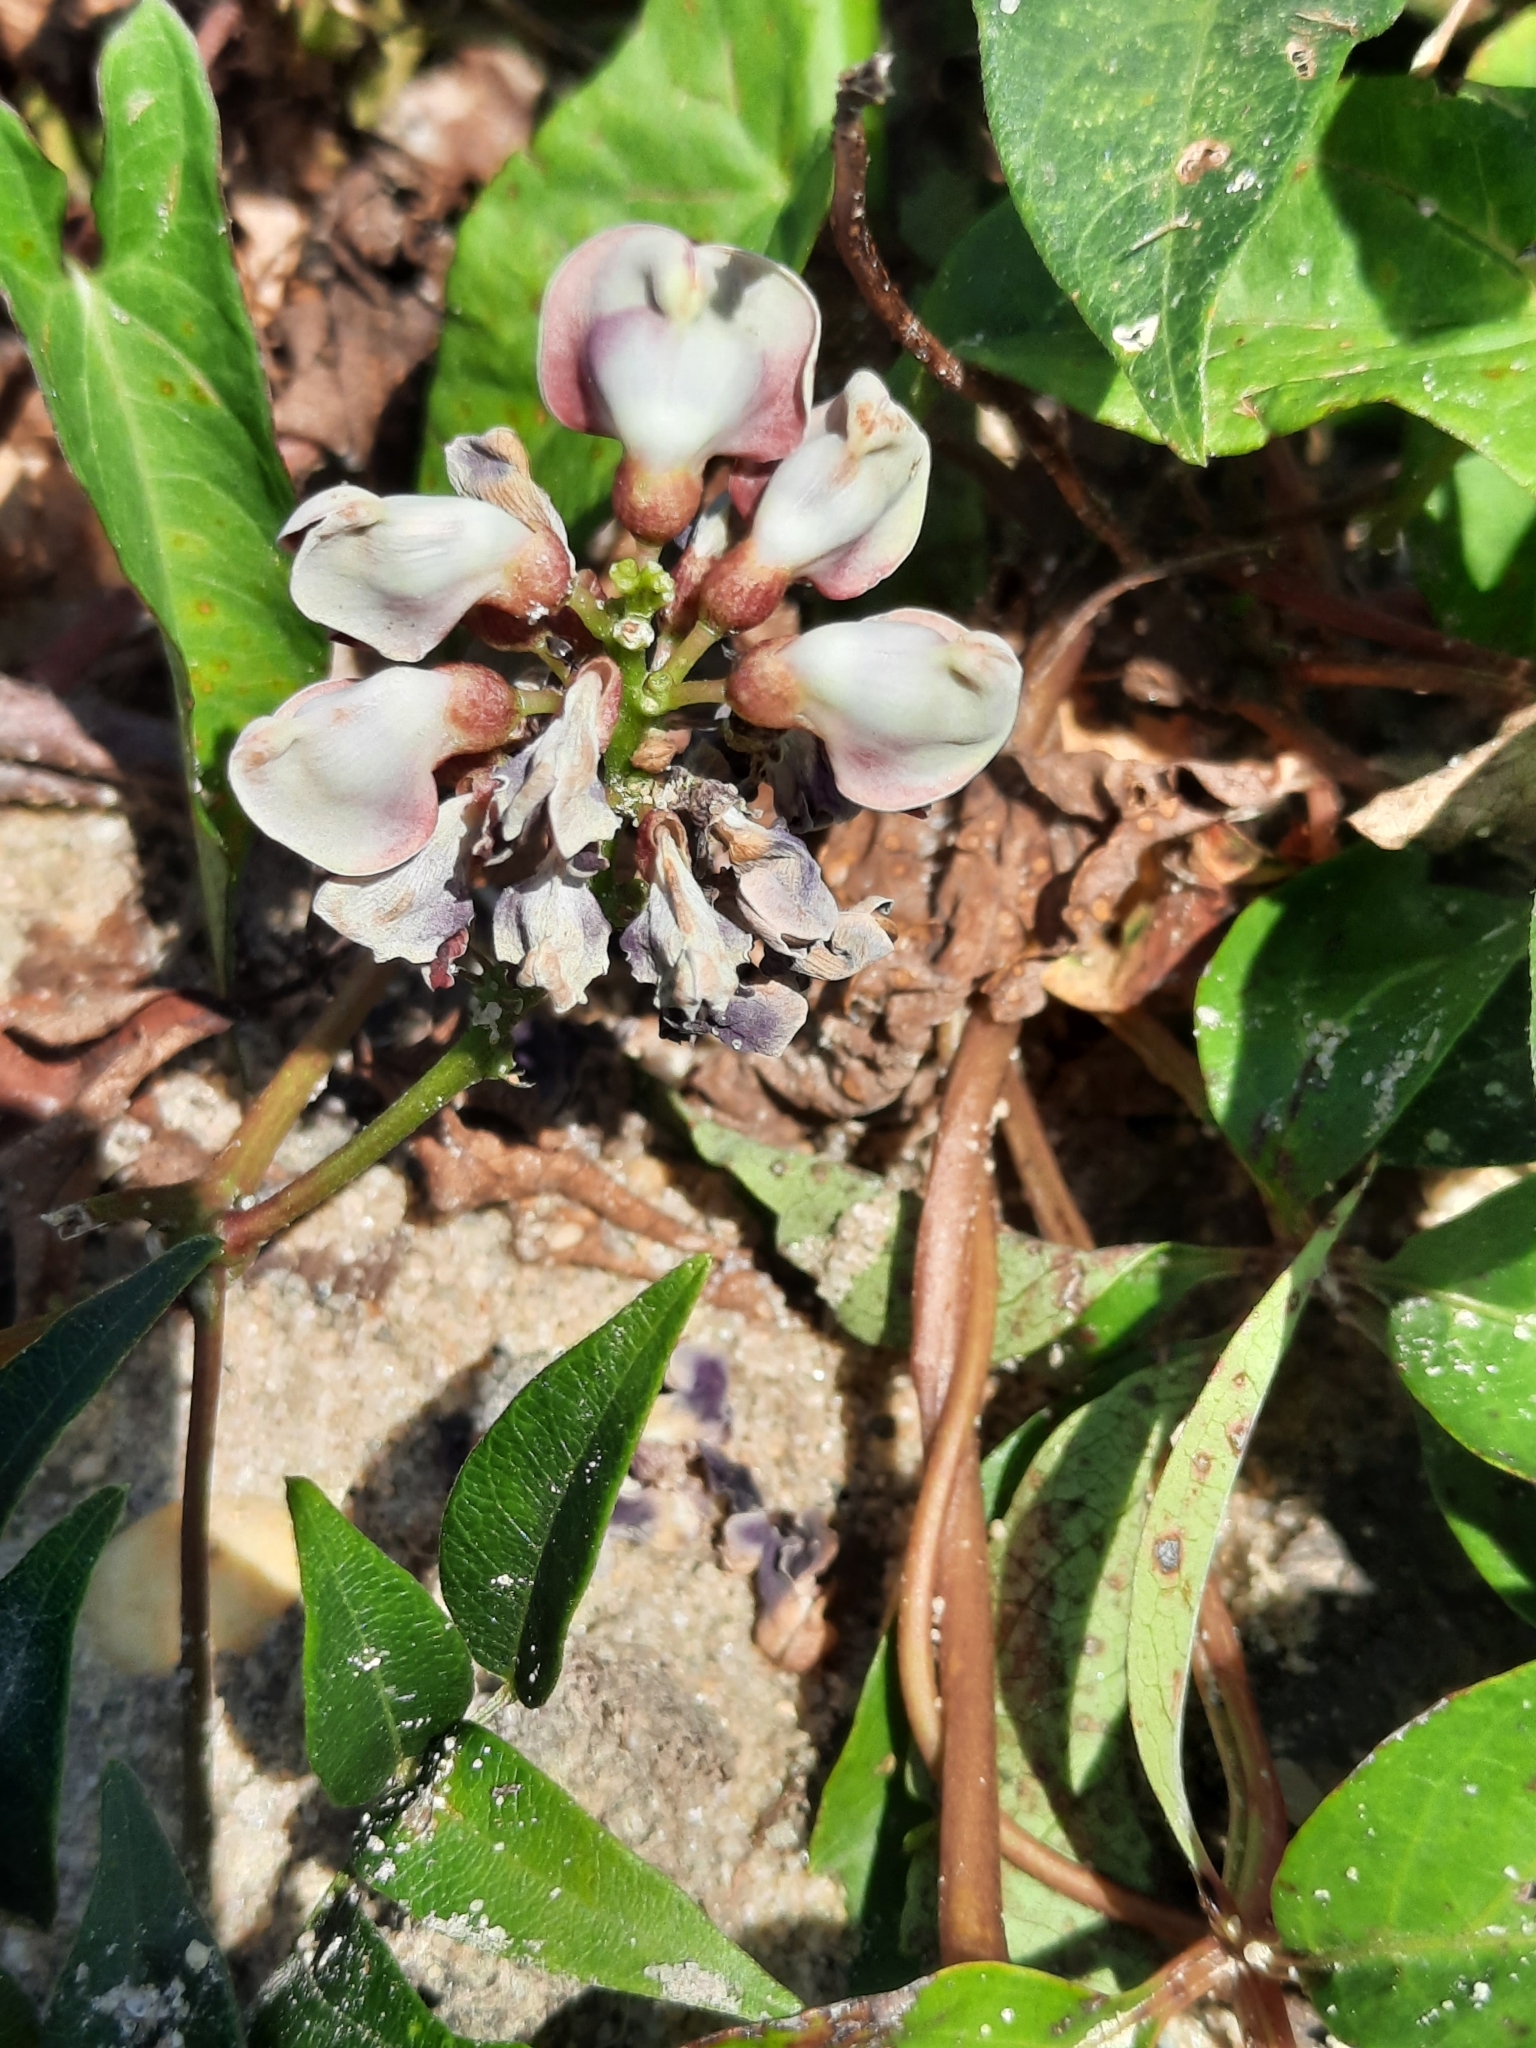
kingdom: Plantae
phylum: Tracheophyta
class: Magnoliopsida
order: Fabales
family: Fabaceae
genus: Apios
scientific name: Apios americana
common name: American potato-bean
